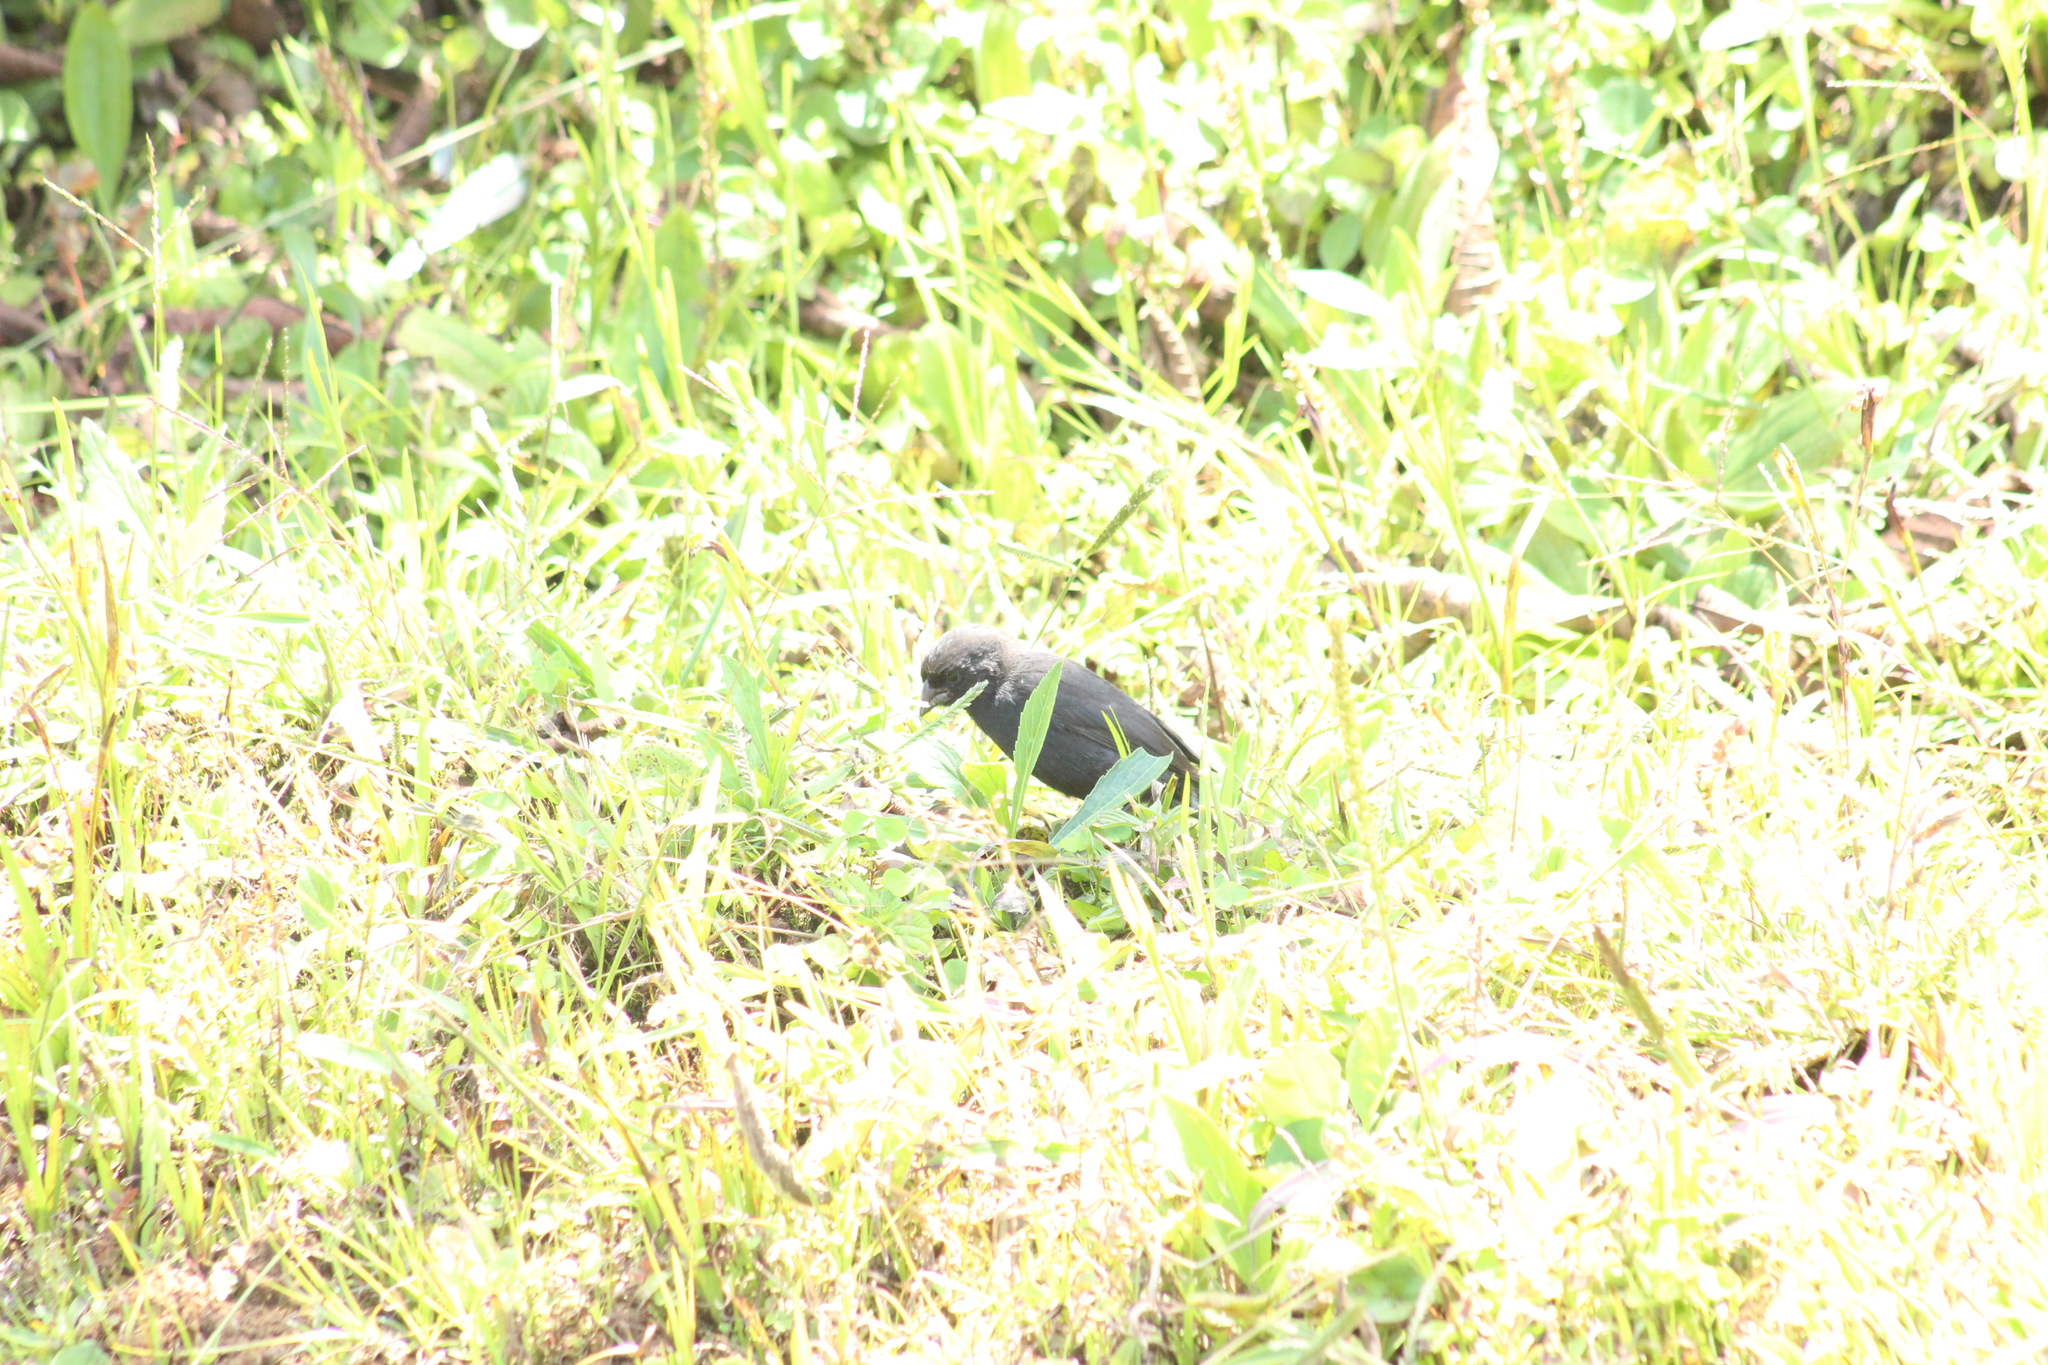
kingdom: Animalia
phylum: Chordata
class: Aves
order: Passeriformes
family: Thraupidae
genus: Geospiza
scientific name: Geospiza fortis
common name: Medium ground finch
